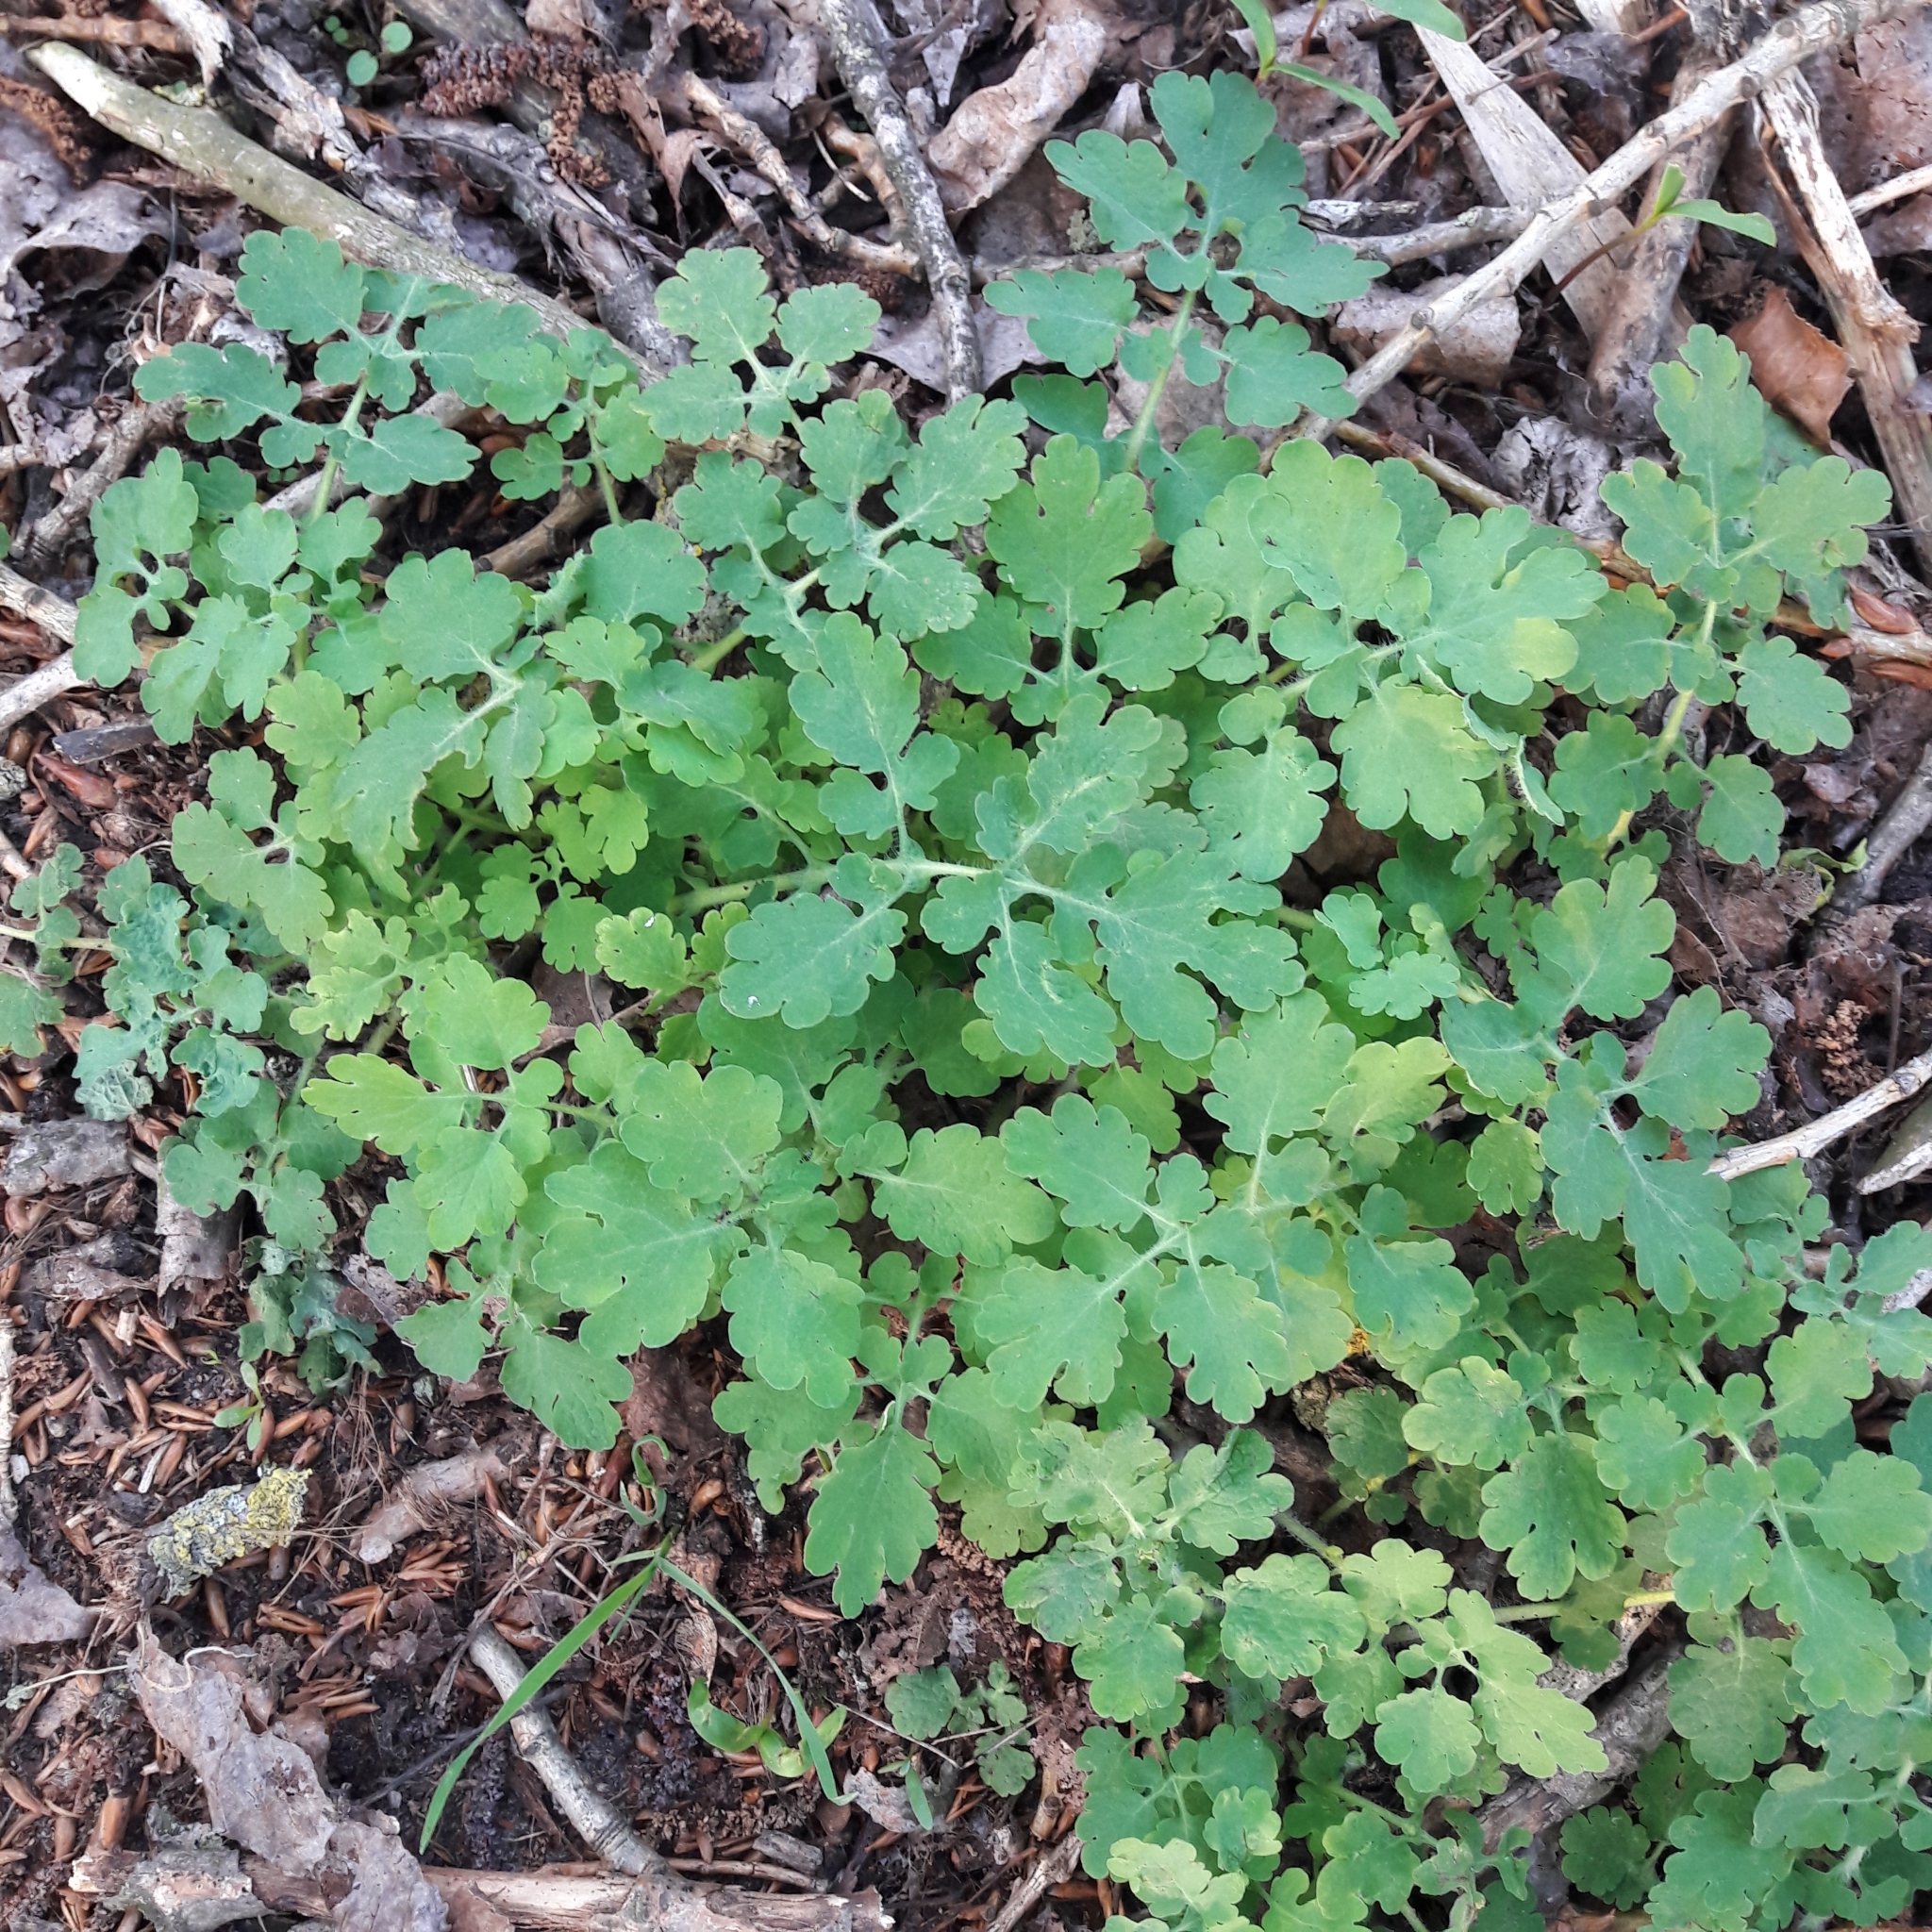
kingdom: Plantae
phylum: Tracheophyta
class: Magnoliopsida
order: Ranunculales
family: Papaveraceae
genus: Chelidonium
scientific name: Chelidonium majus
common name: Greater celandine
